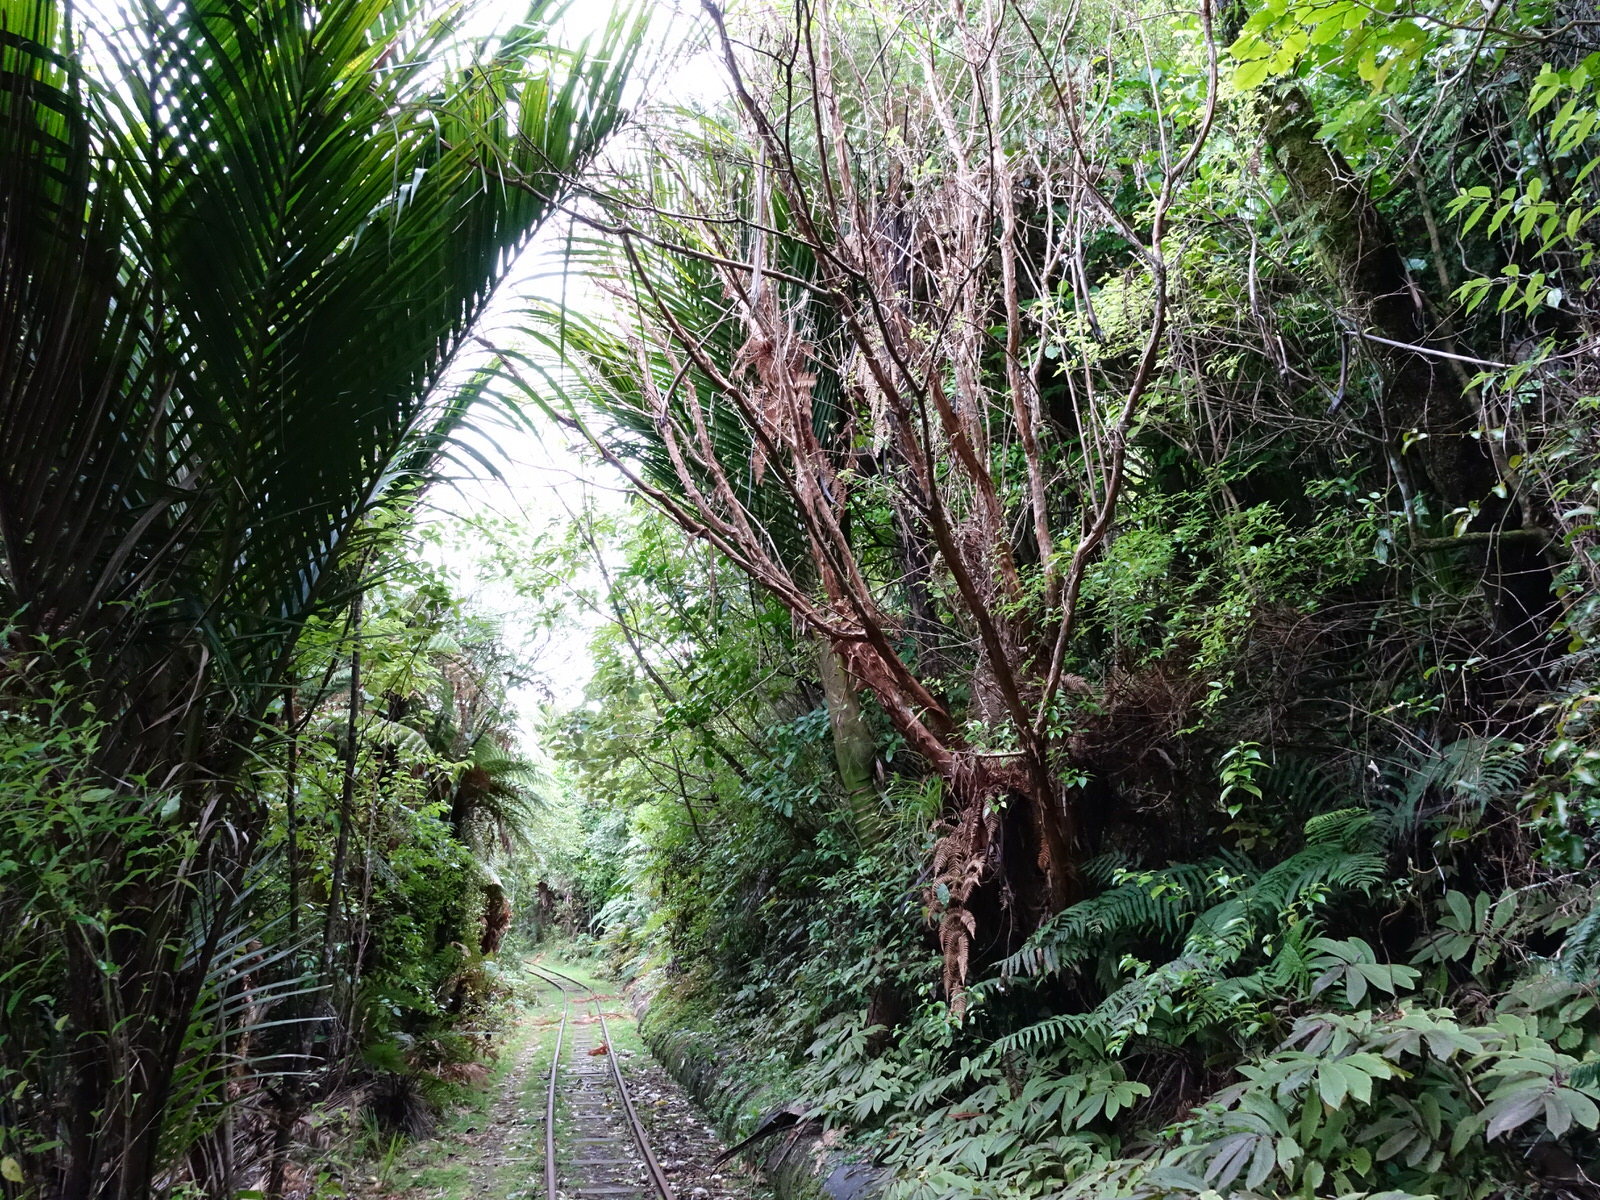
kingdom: Plantae
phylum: Tracheophyta
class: Magnoliopsida
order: Myrtales
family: Onagraceae
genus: Fuchsia
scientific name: Fuchsia excorticata
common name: Tree fuchsia
